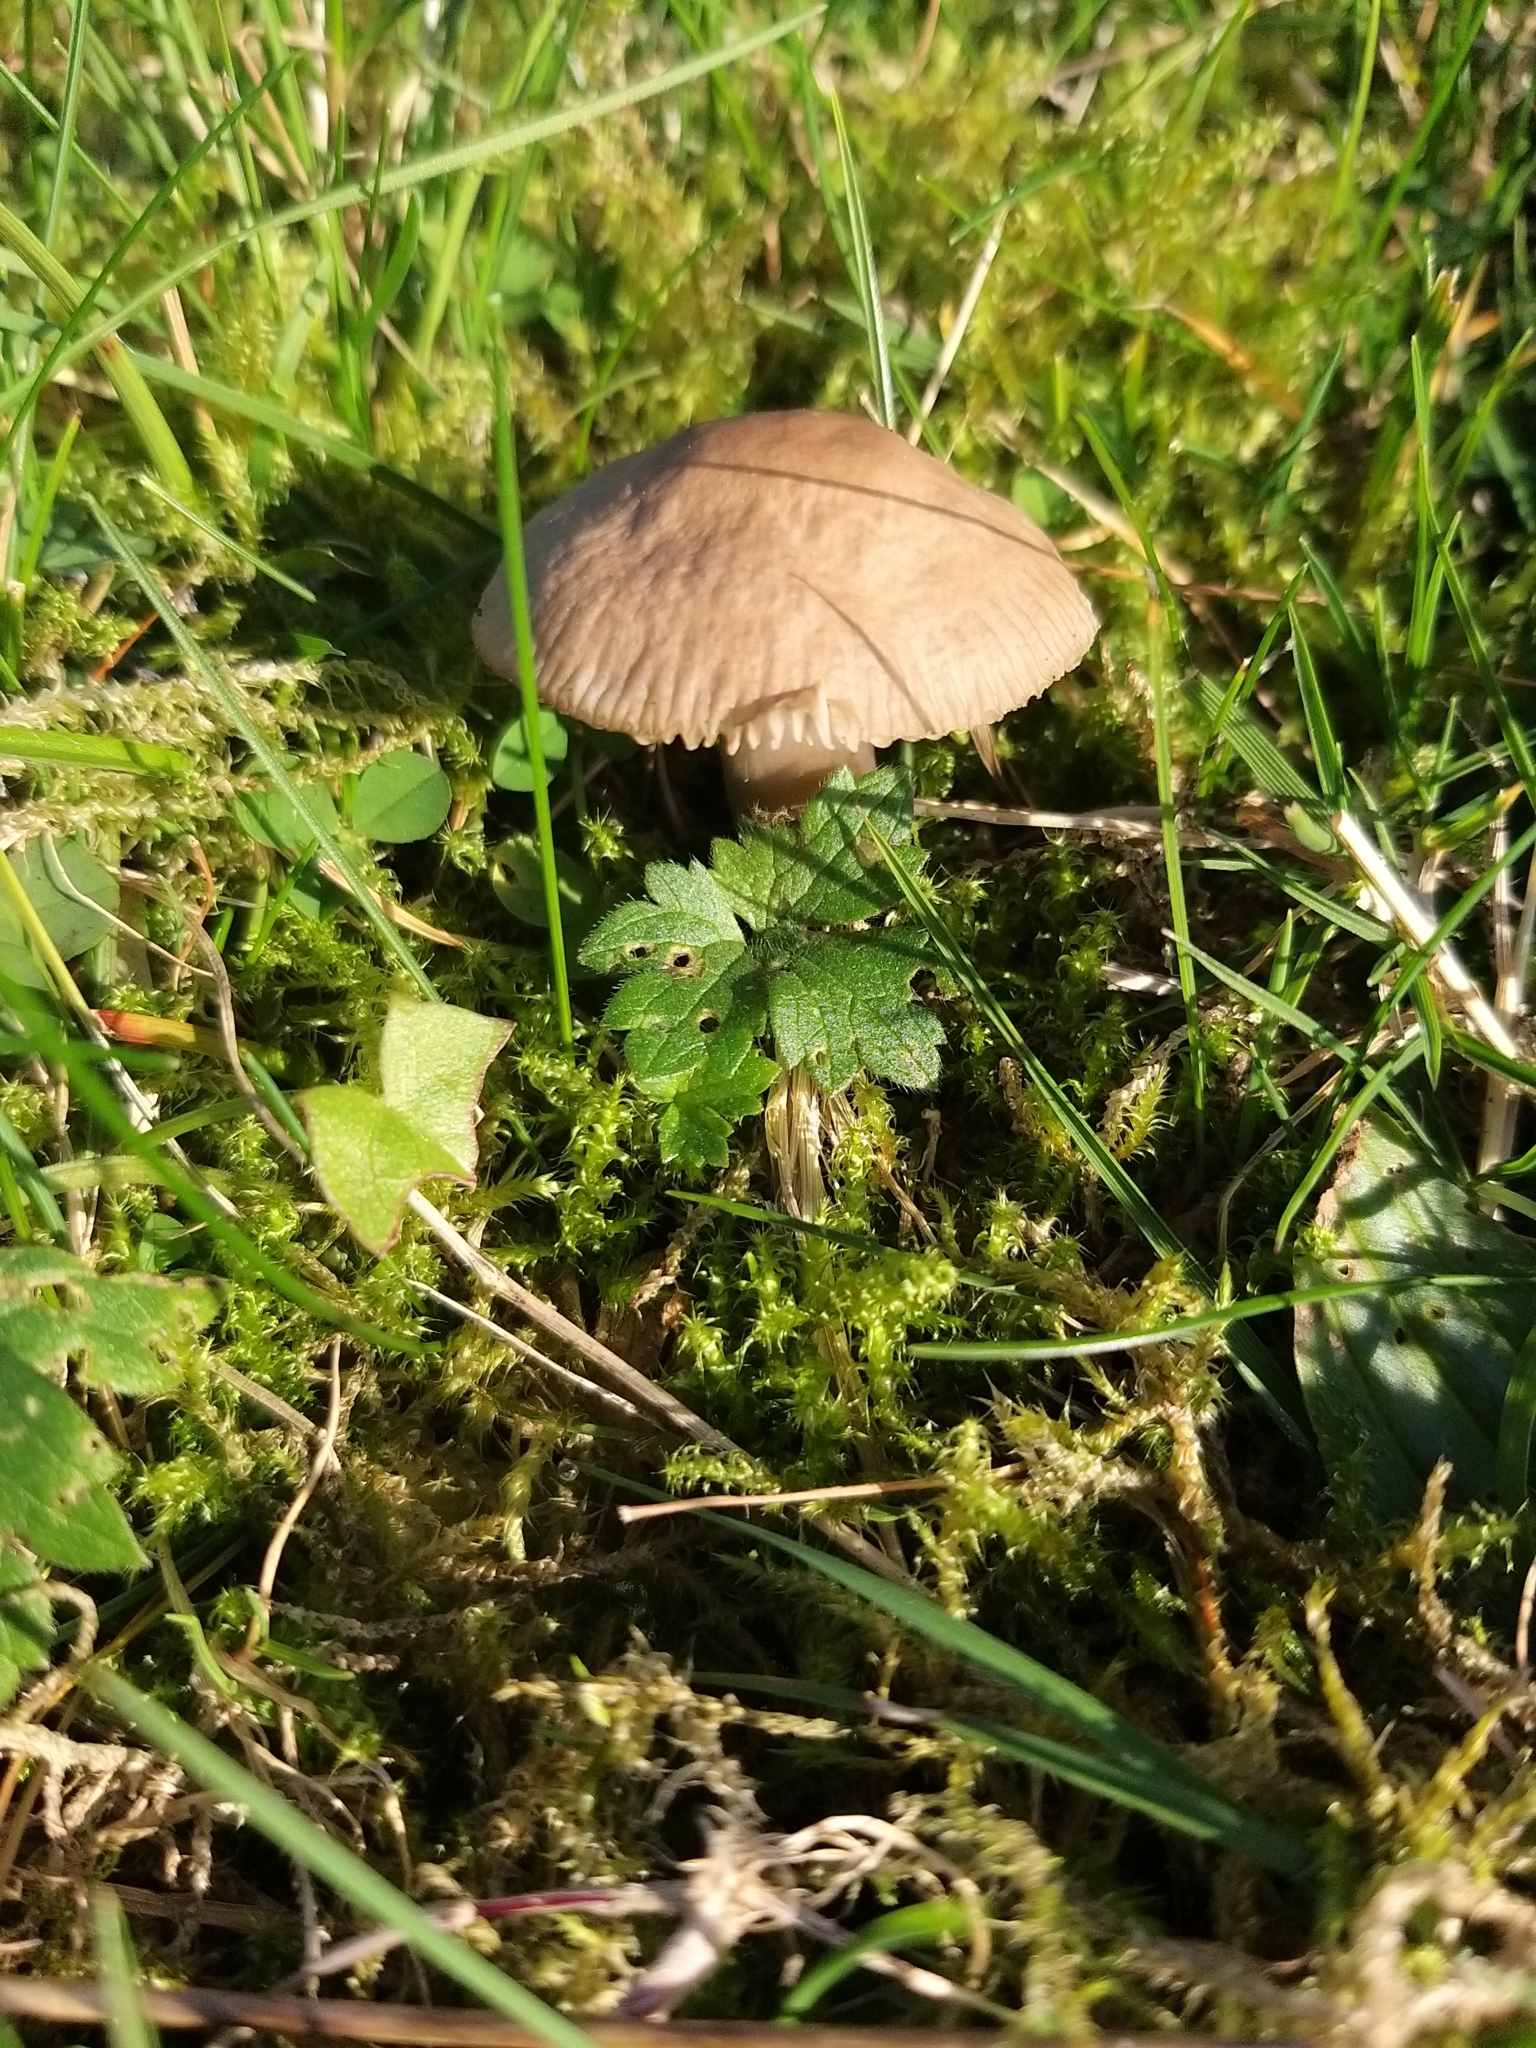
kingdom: Fungi
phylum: Basidiomycota
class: Agaricomycetes
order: Agaricales
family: Hygrophoraceae
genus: Gliophorus
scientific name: Gliophorus irrigatus
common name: Slimy waxcap
